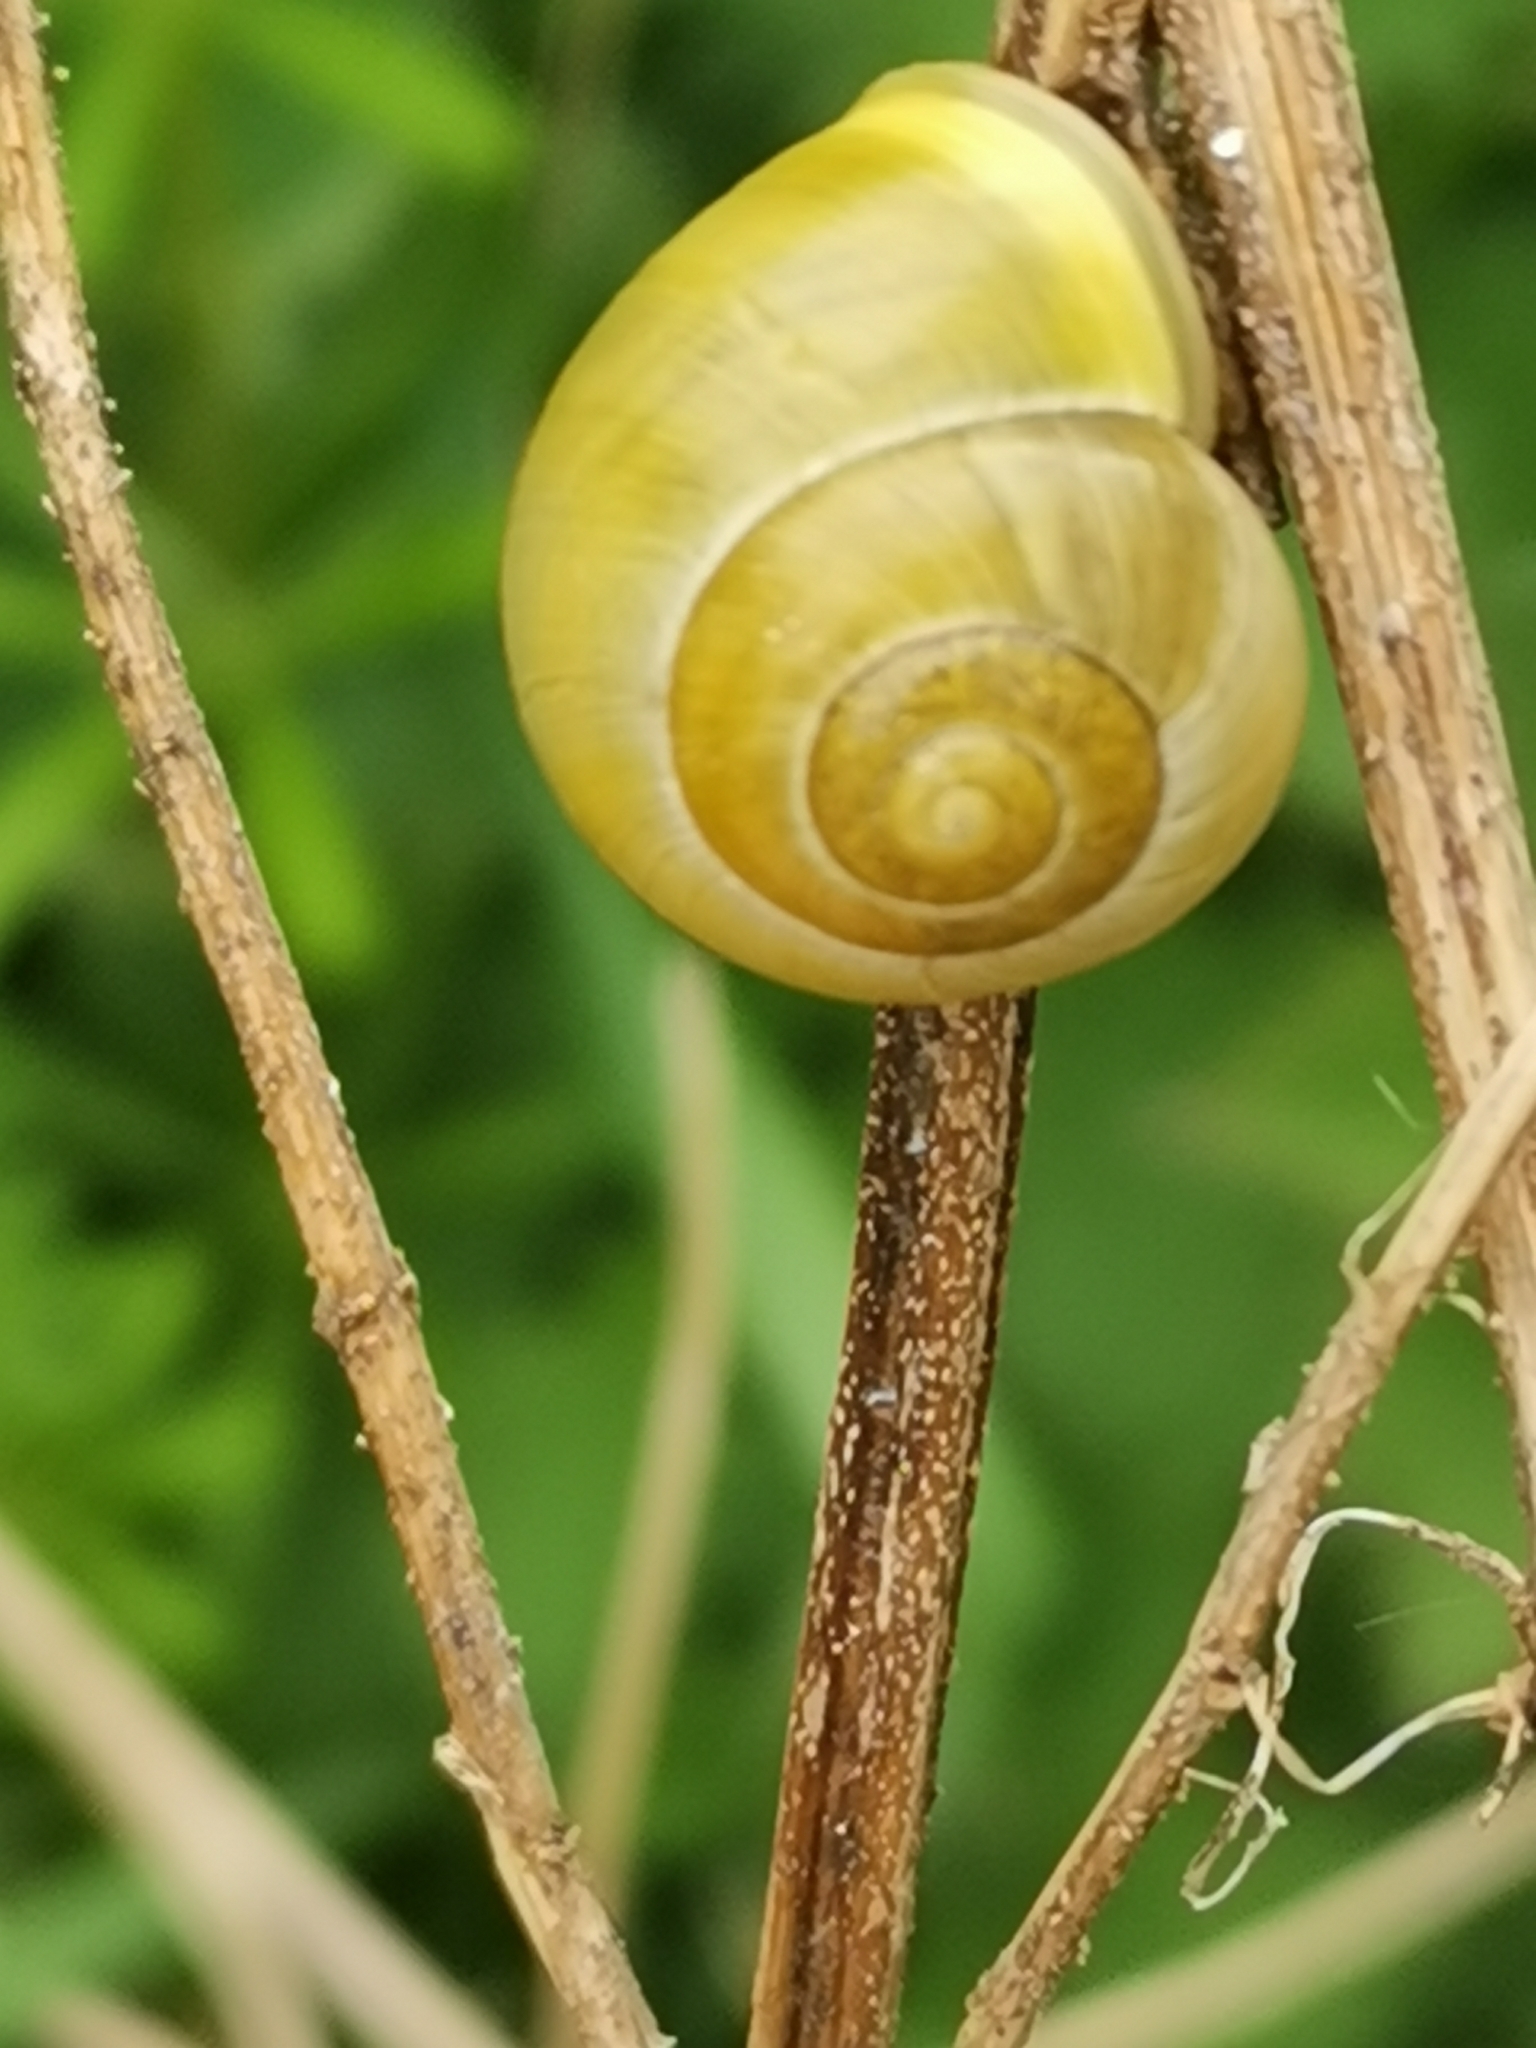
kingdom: Animalia
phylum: Mollusca
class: Gastropoda
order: Stylommatophora
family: Helicidae
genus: Cepaea
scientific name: Cepaea hortensis
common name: White-lip gardensnail
